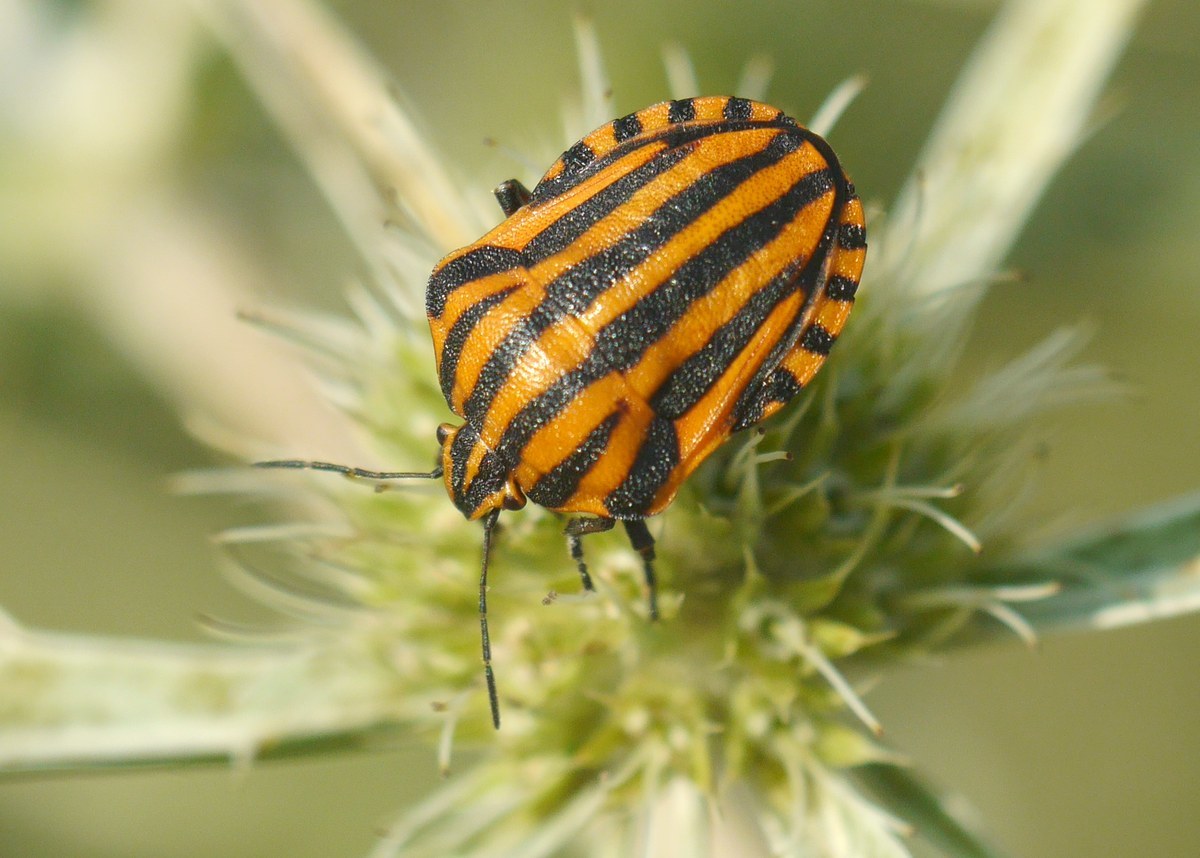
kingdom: Animalia
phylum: Arthropoda
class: Insecta
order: Hemiptera
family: Pentatomidae
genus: Graphosoma
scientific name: Graphosoma italicum
